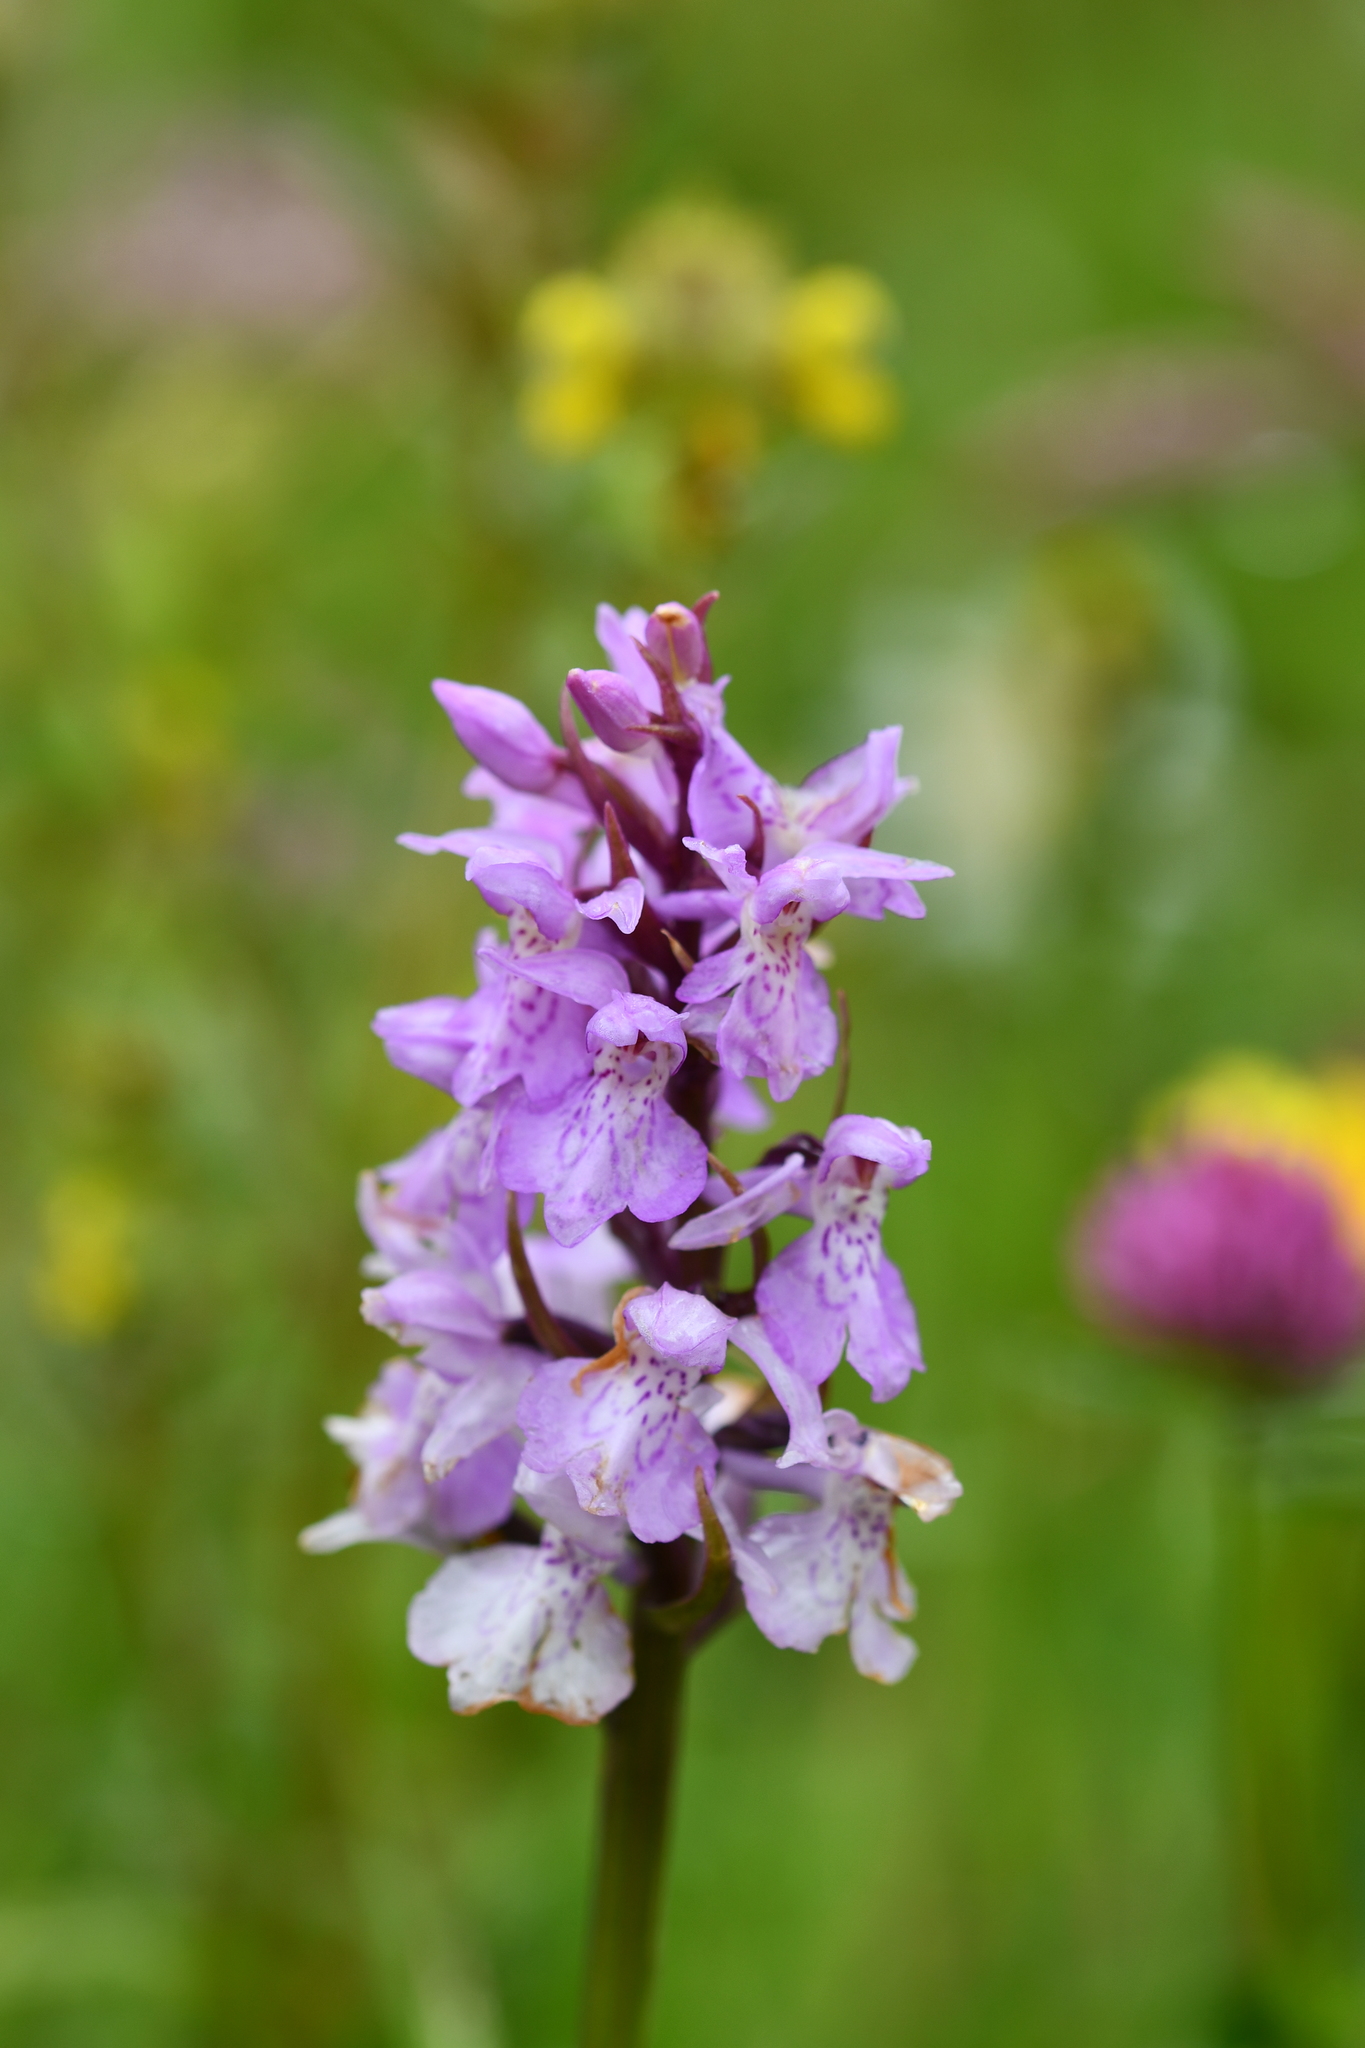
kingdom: Plantae
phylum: Tracheophyta
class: Liliopsida
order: Asparagales
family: Orchidaceae
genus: Dactylorhiza
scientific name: Dactylorhiza maculata
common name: Heath spotted-orchid
